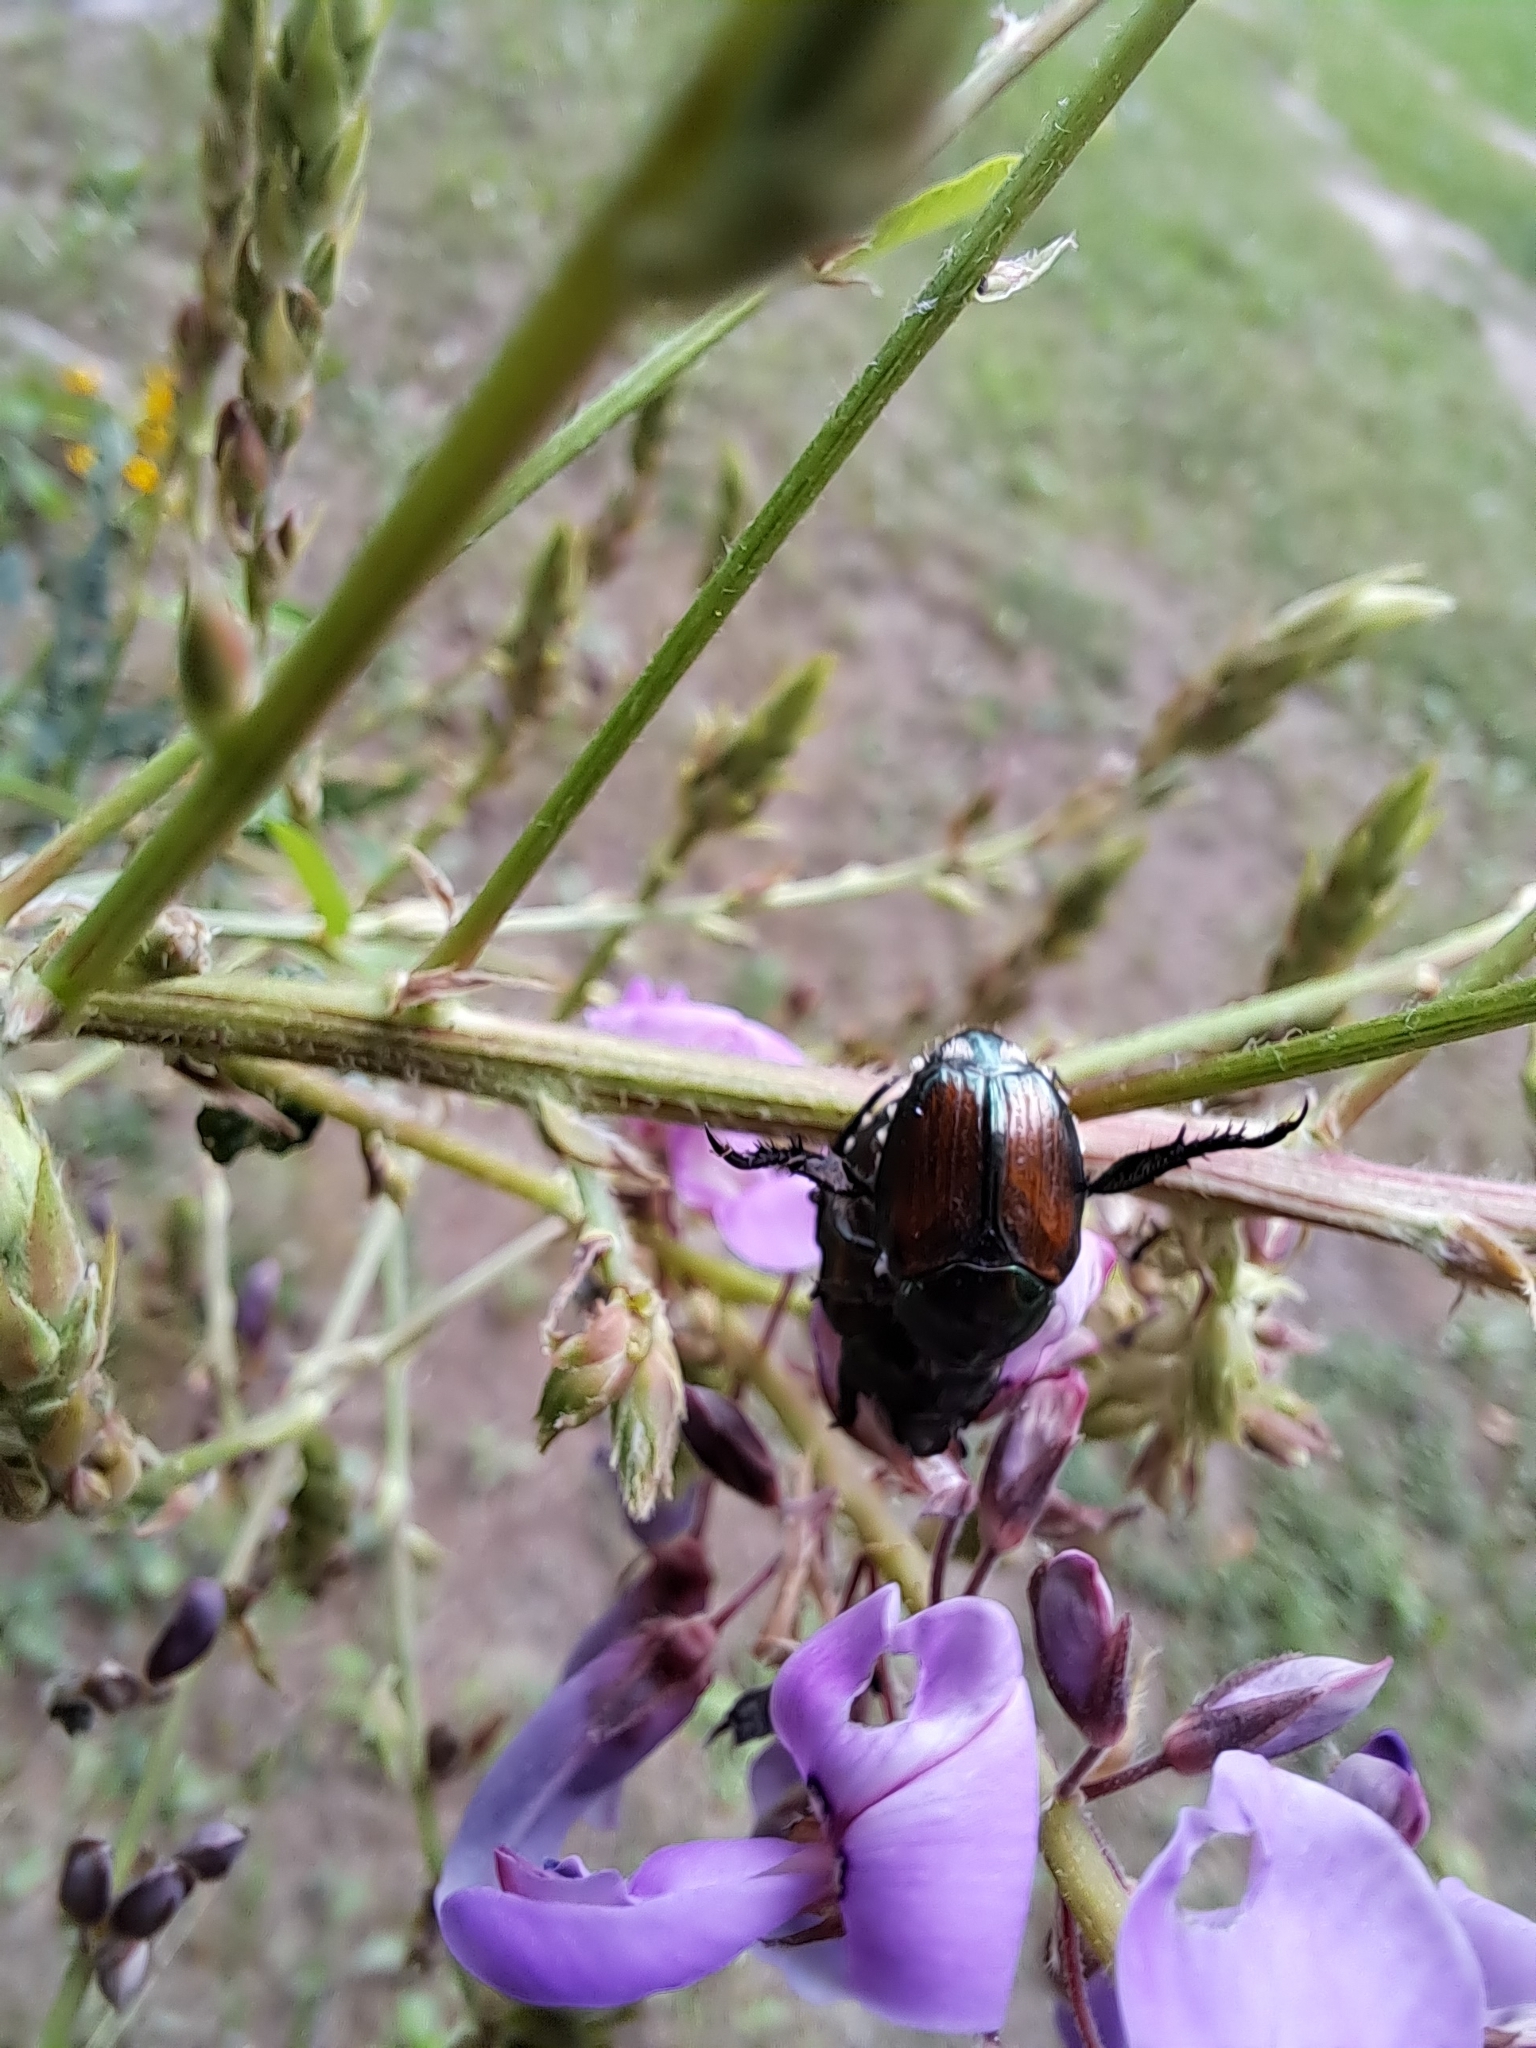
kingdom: Animalia
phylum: Arthropoda
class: Insecta
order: Coleoptera
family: Scarabaeidae
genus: Popillia
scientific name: Popillia japonica
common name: Japanese beetle
